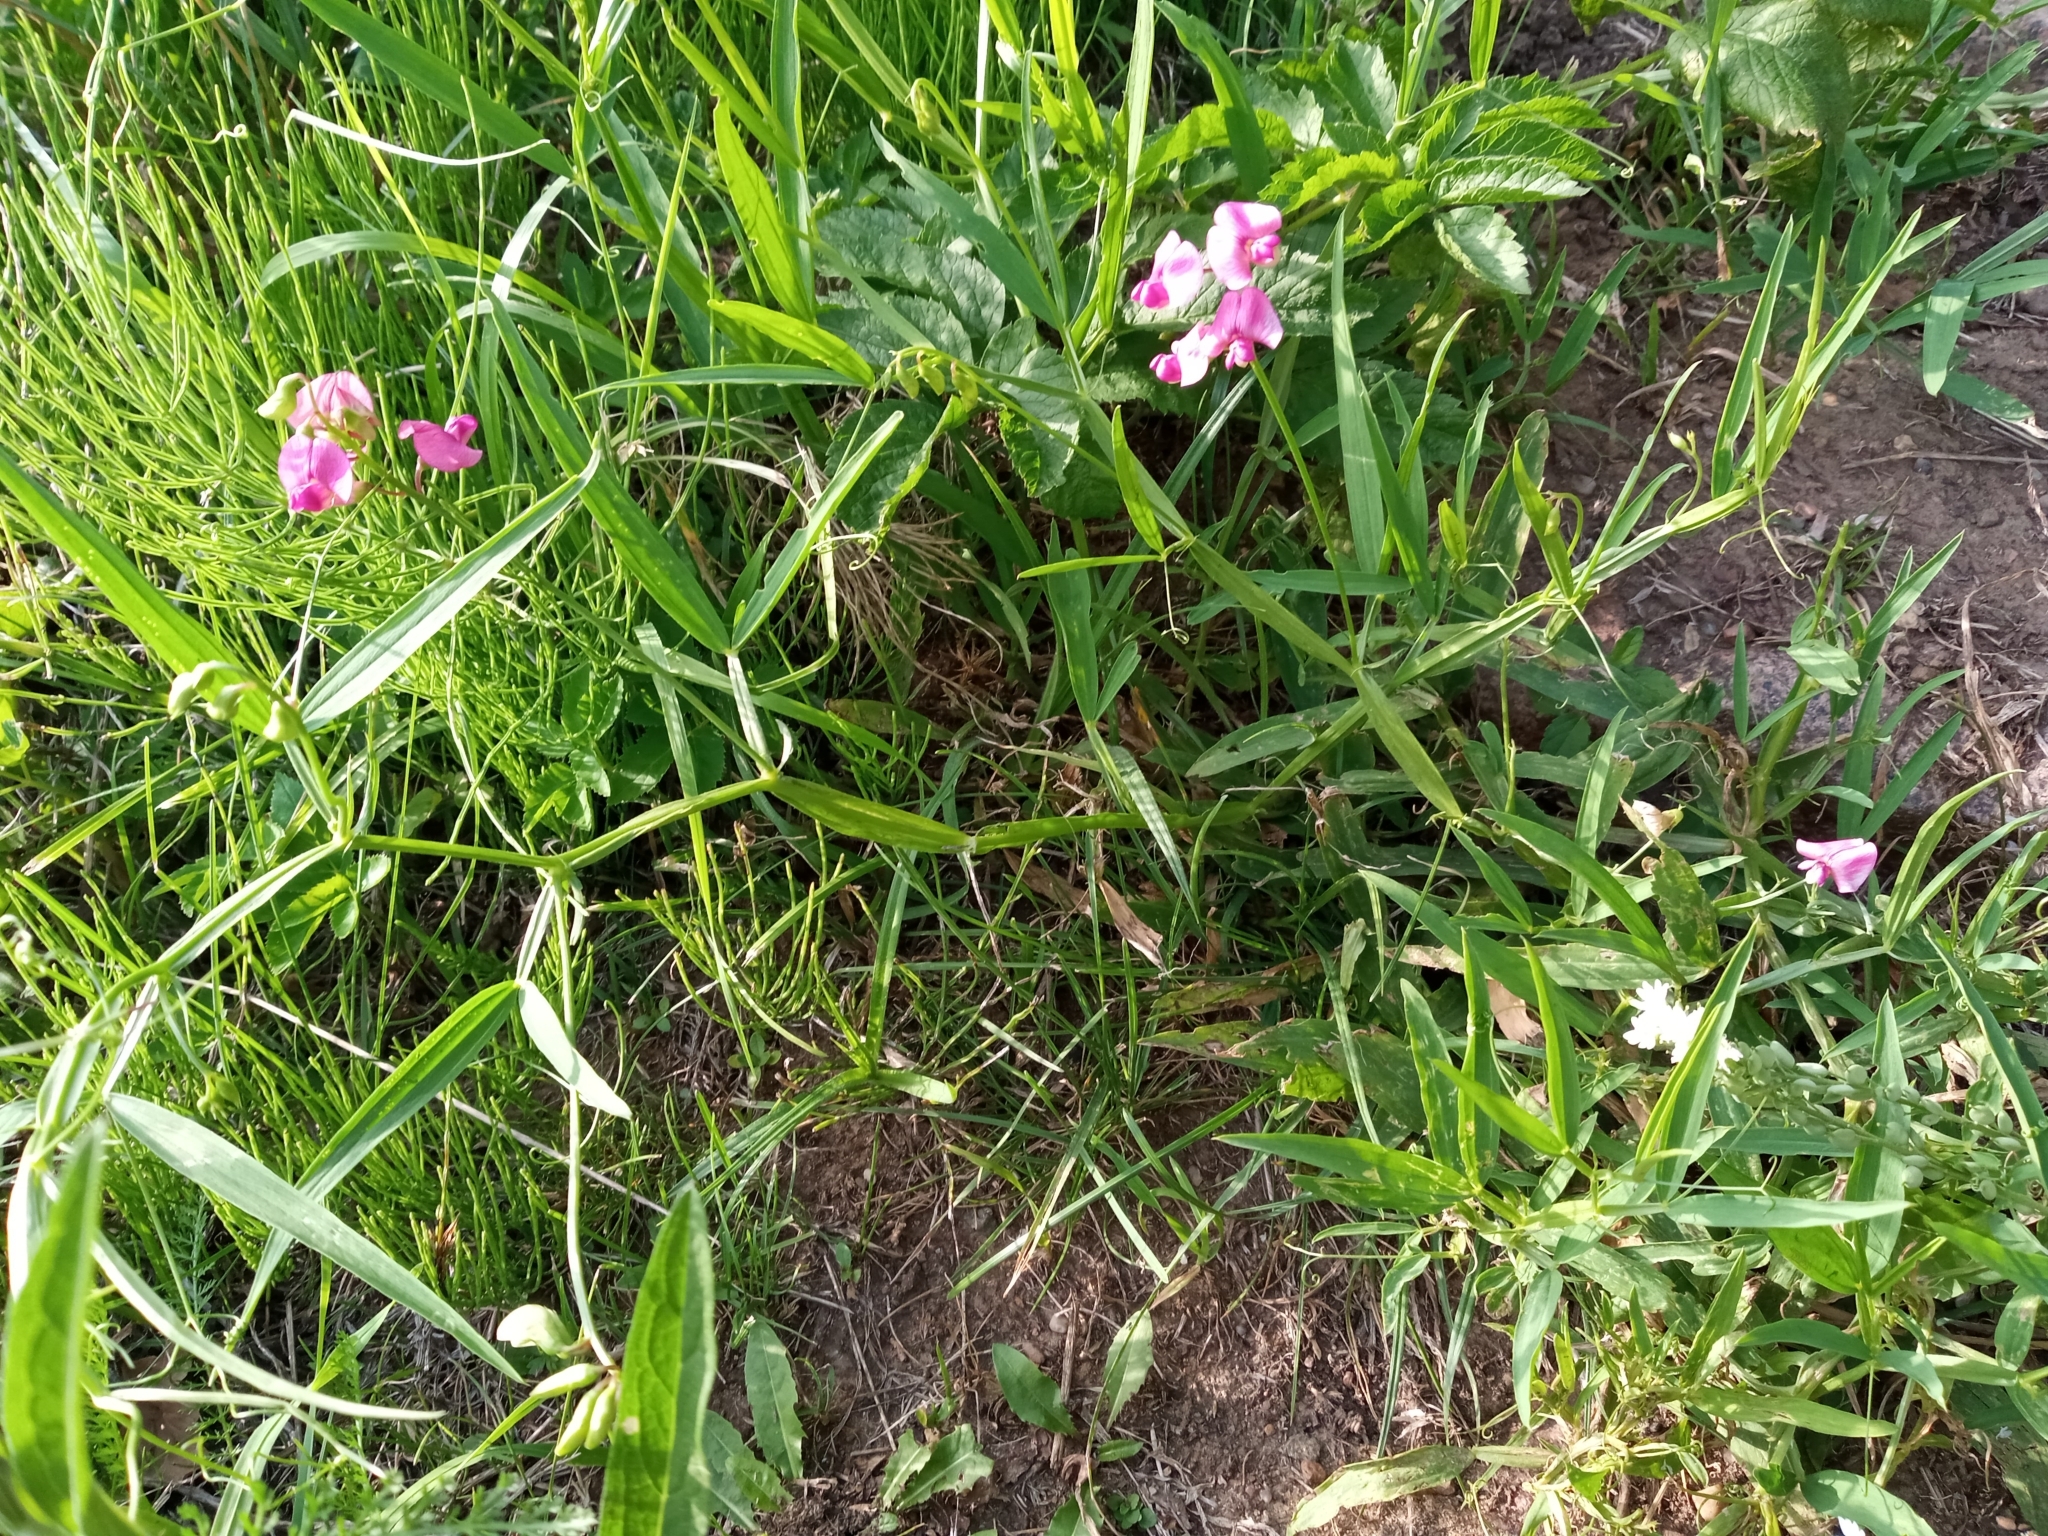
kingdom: Plantae
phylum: Tracheophyta
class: Magnoliopsida
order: Fabales
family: Fabaceae
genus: Lathyrus
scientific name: Lathyrus sylvestris
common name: Flat pea
